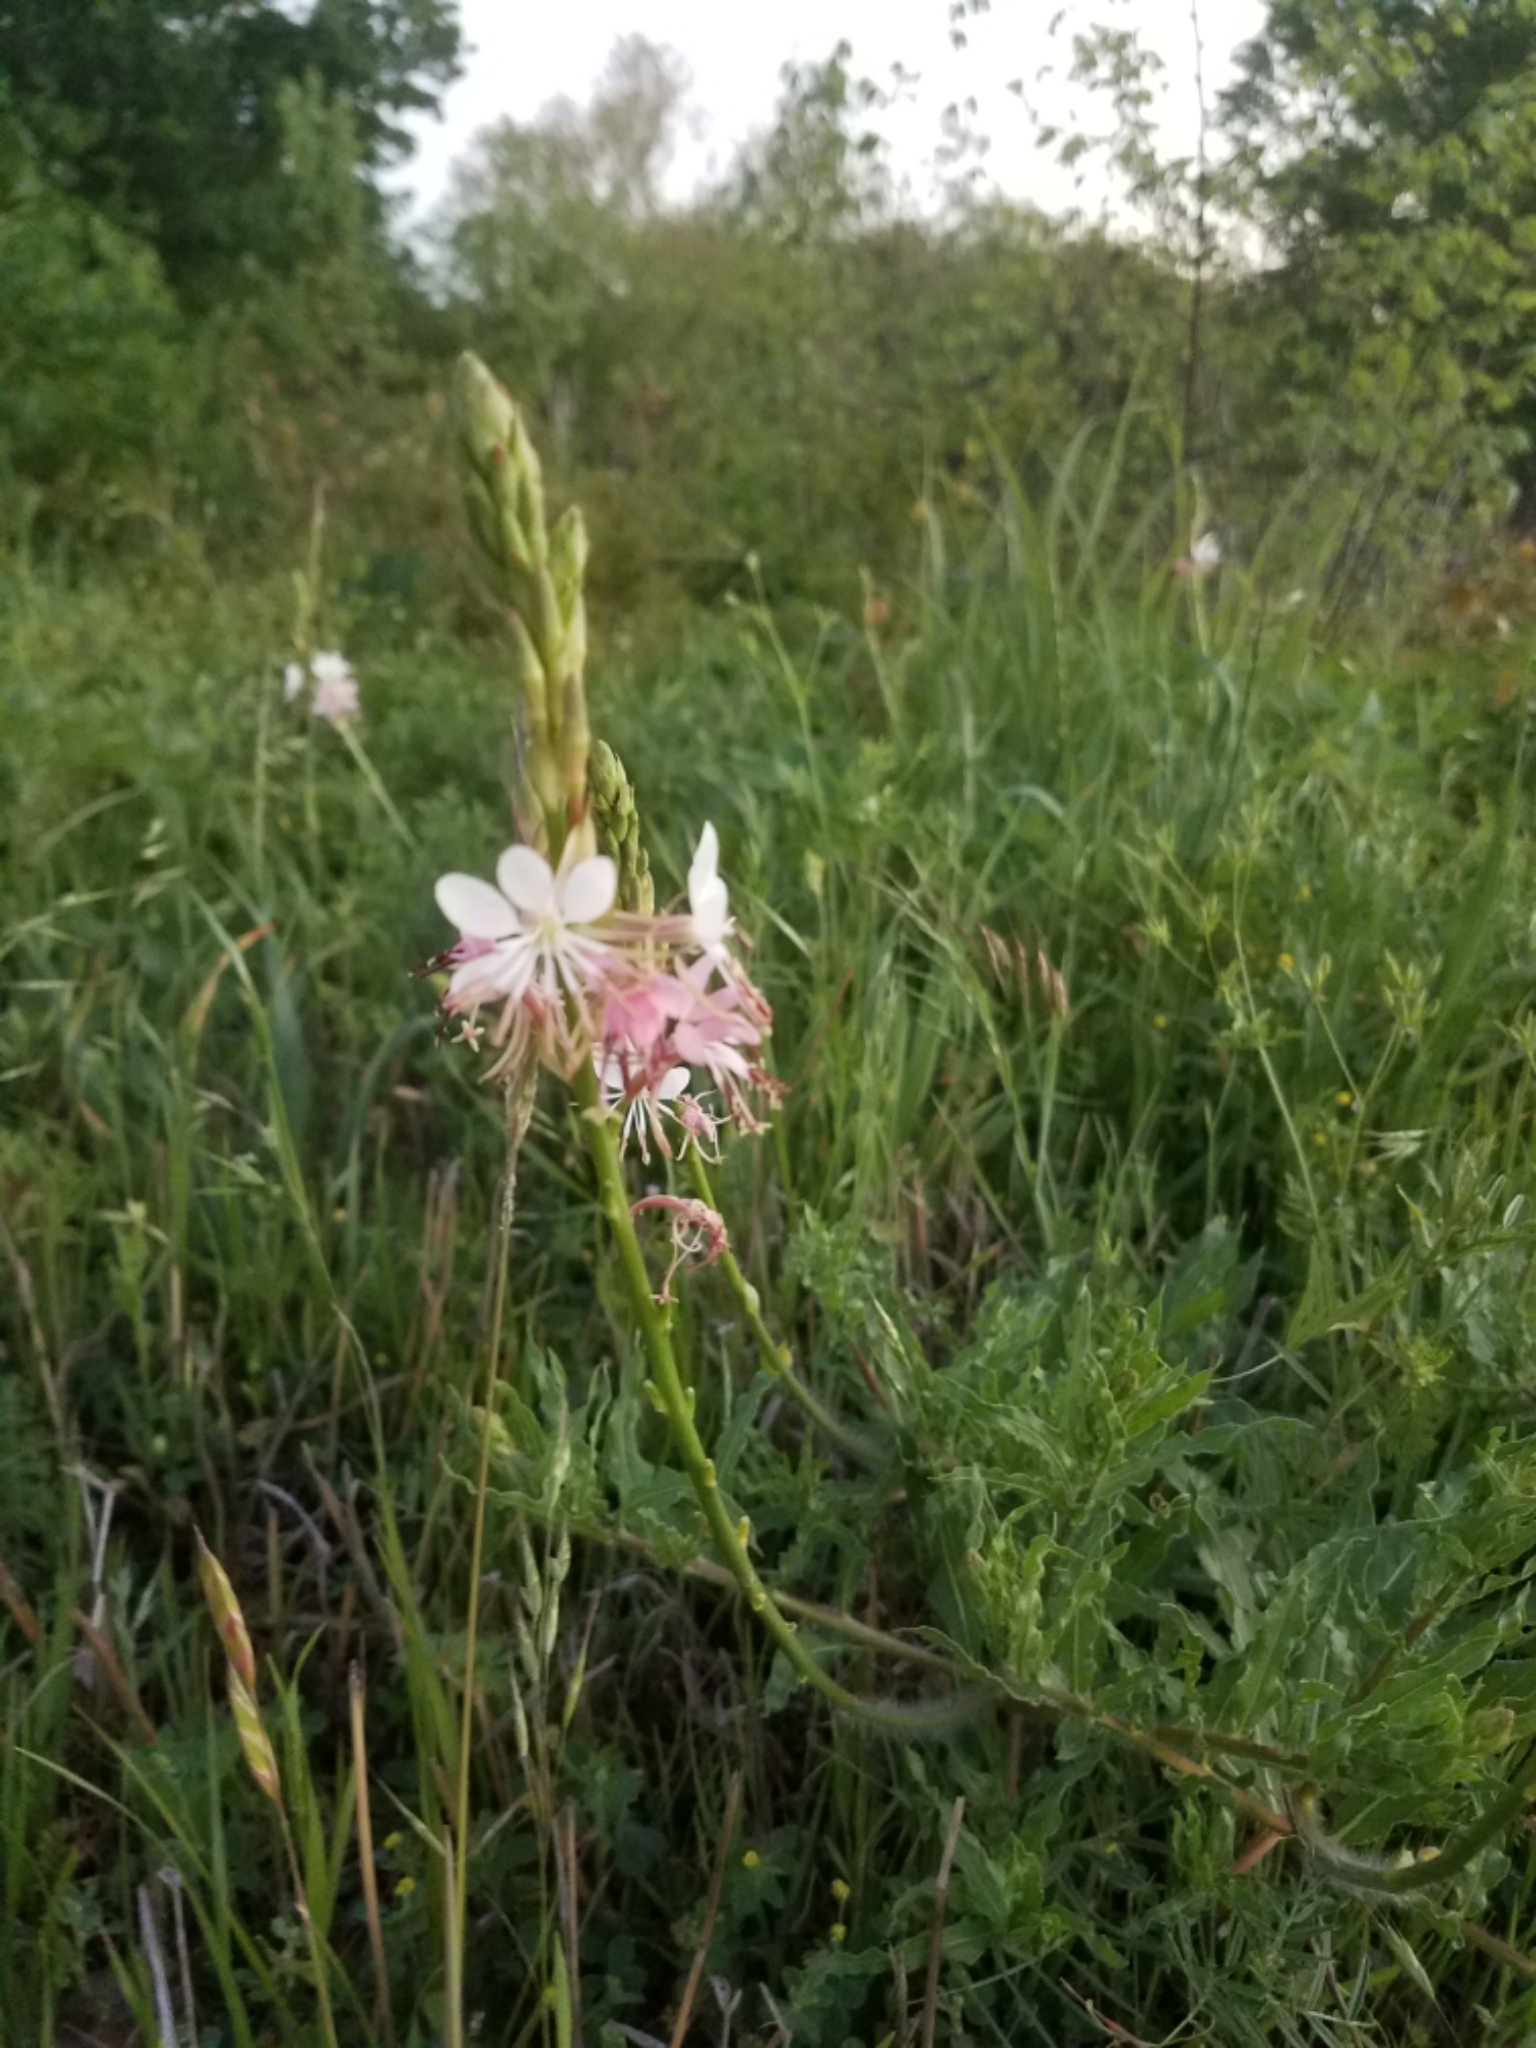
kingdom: Plantae
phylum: Tracheophyta
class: Magnoliopsida
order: Myrtales
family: Onagraceae
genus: Oenothera
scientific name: Oenothera suffulta
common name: Kisses
